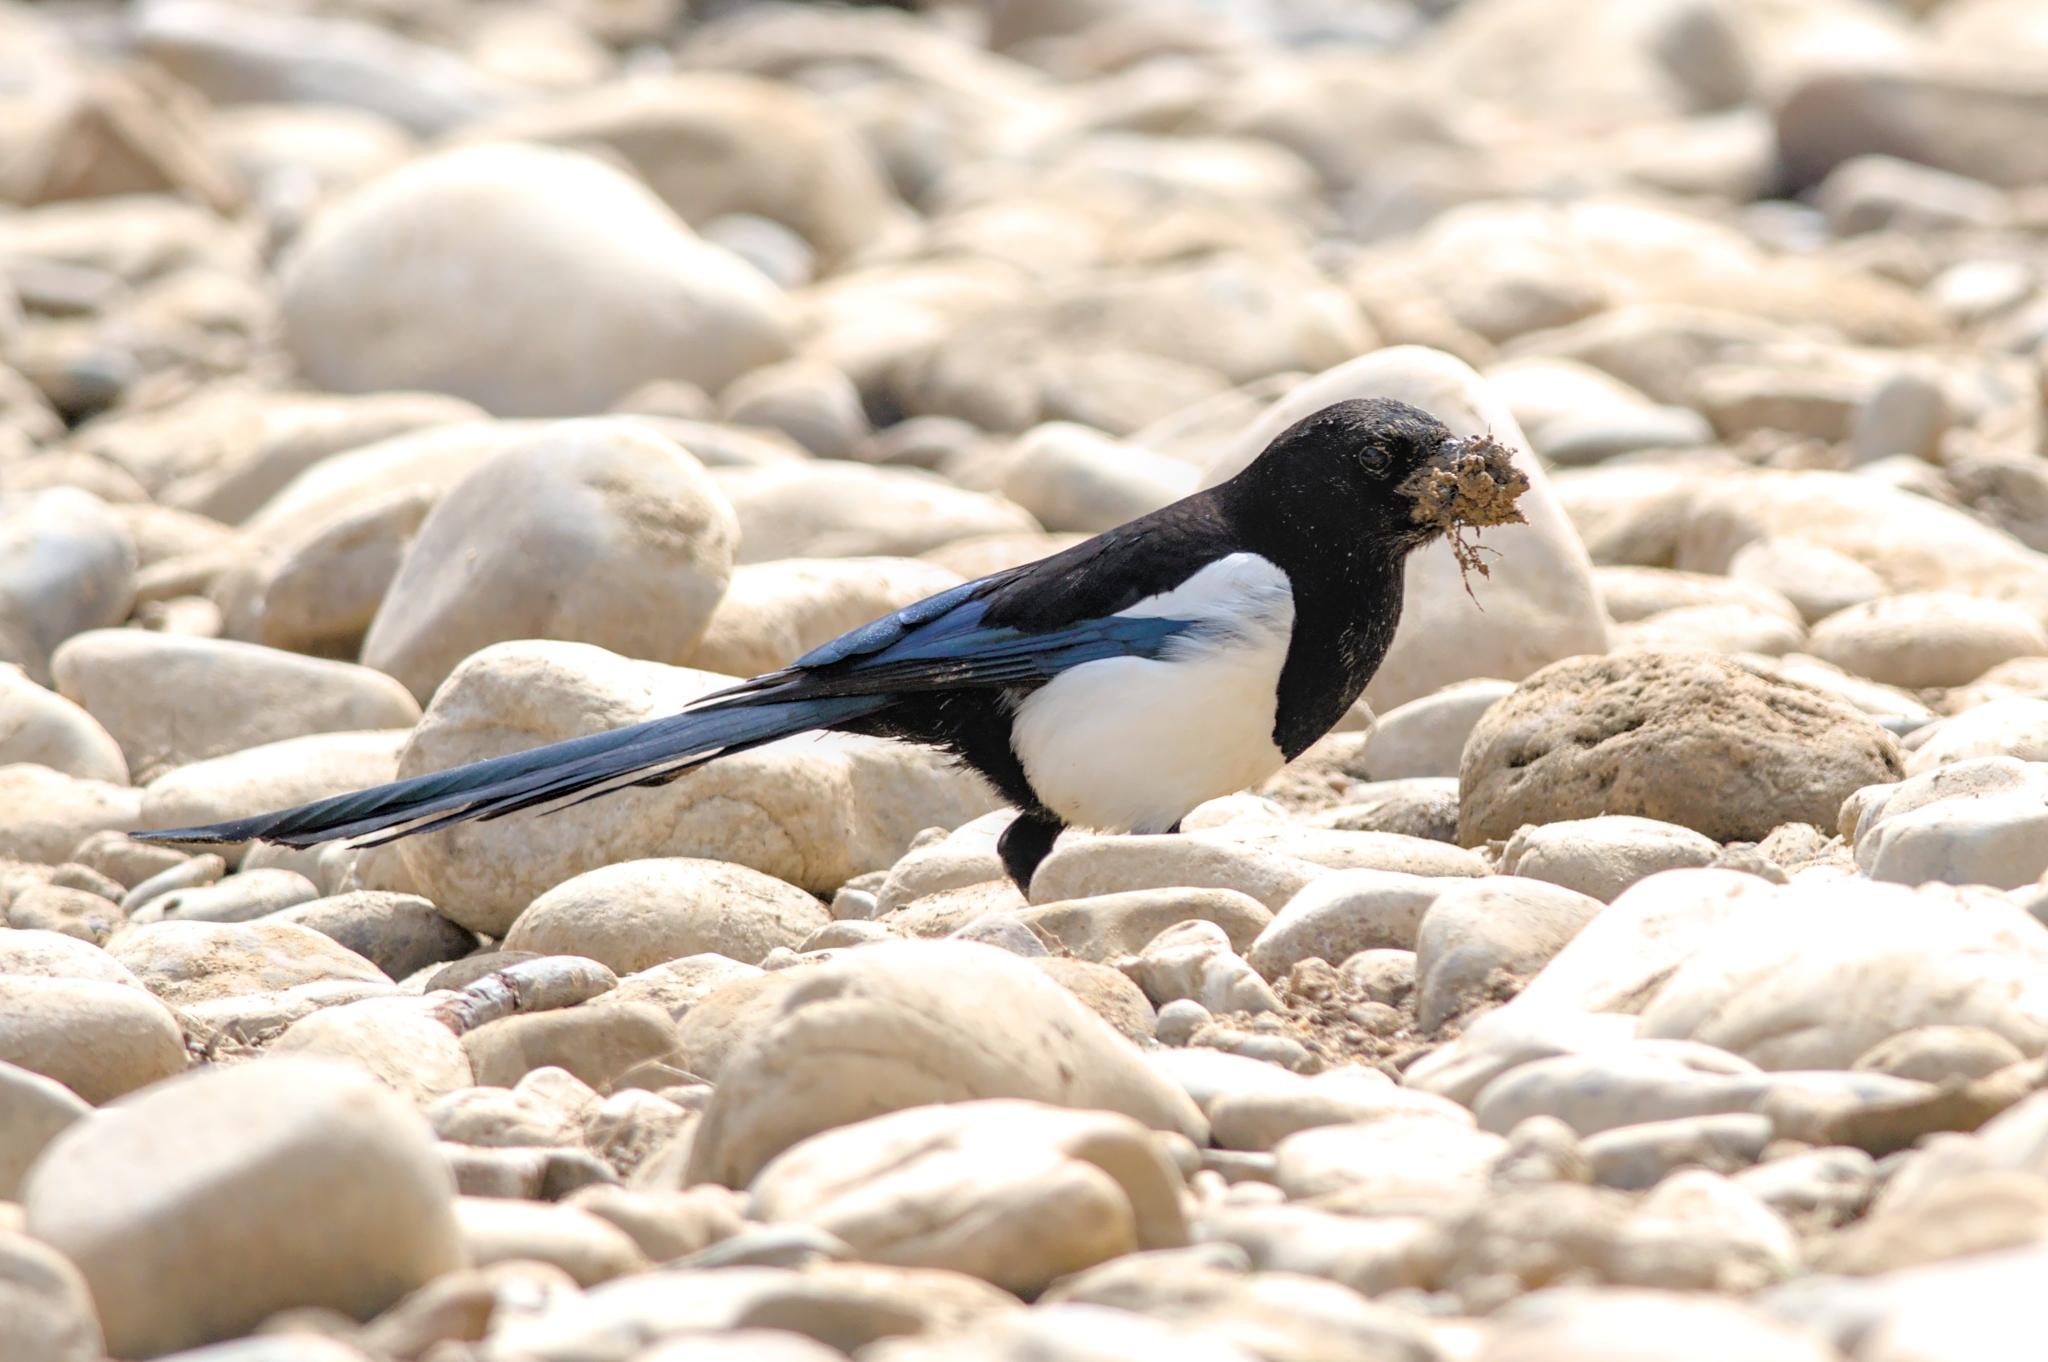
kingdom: Animalia
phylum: Chordata
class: Aves
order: Passeriformes
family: Corvidae
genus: Pica
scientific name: Pica pica
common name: Eurasian magpie
